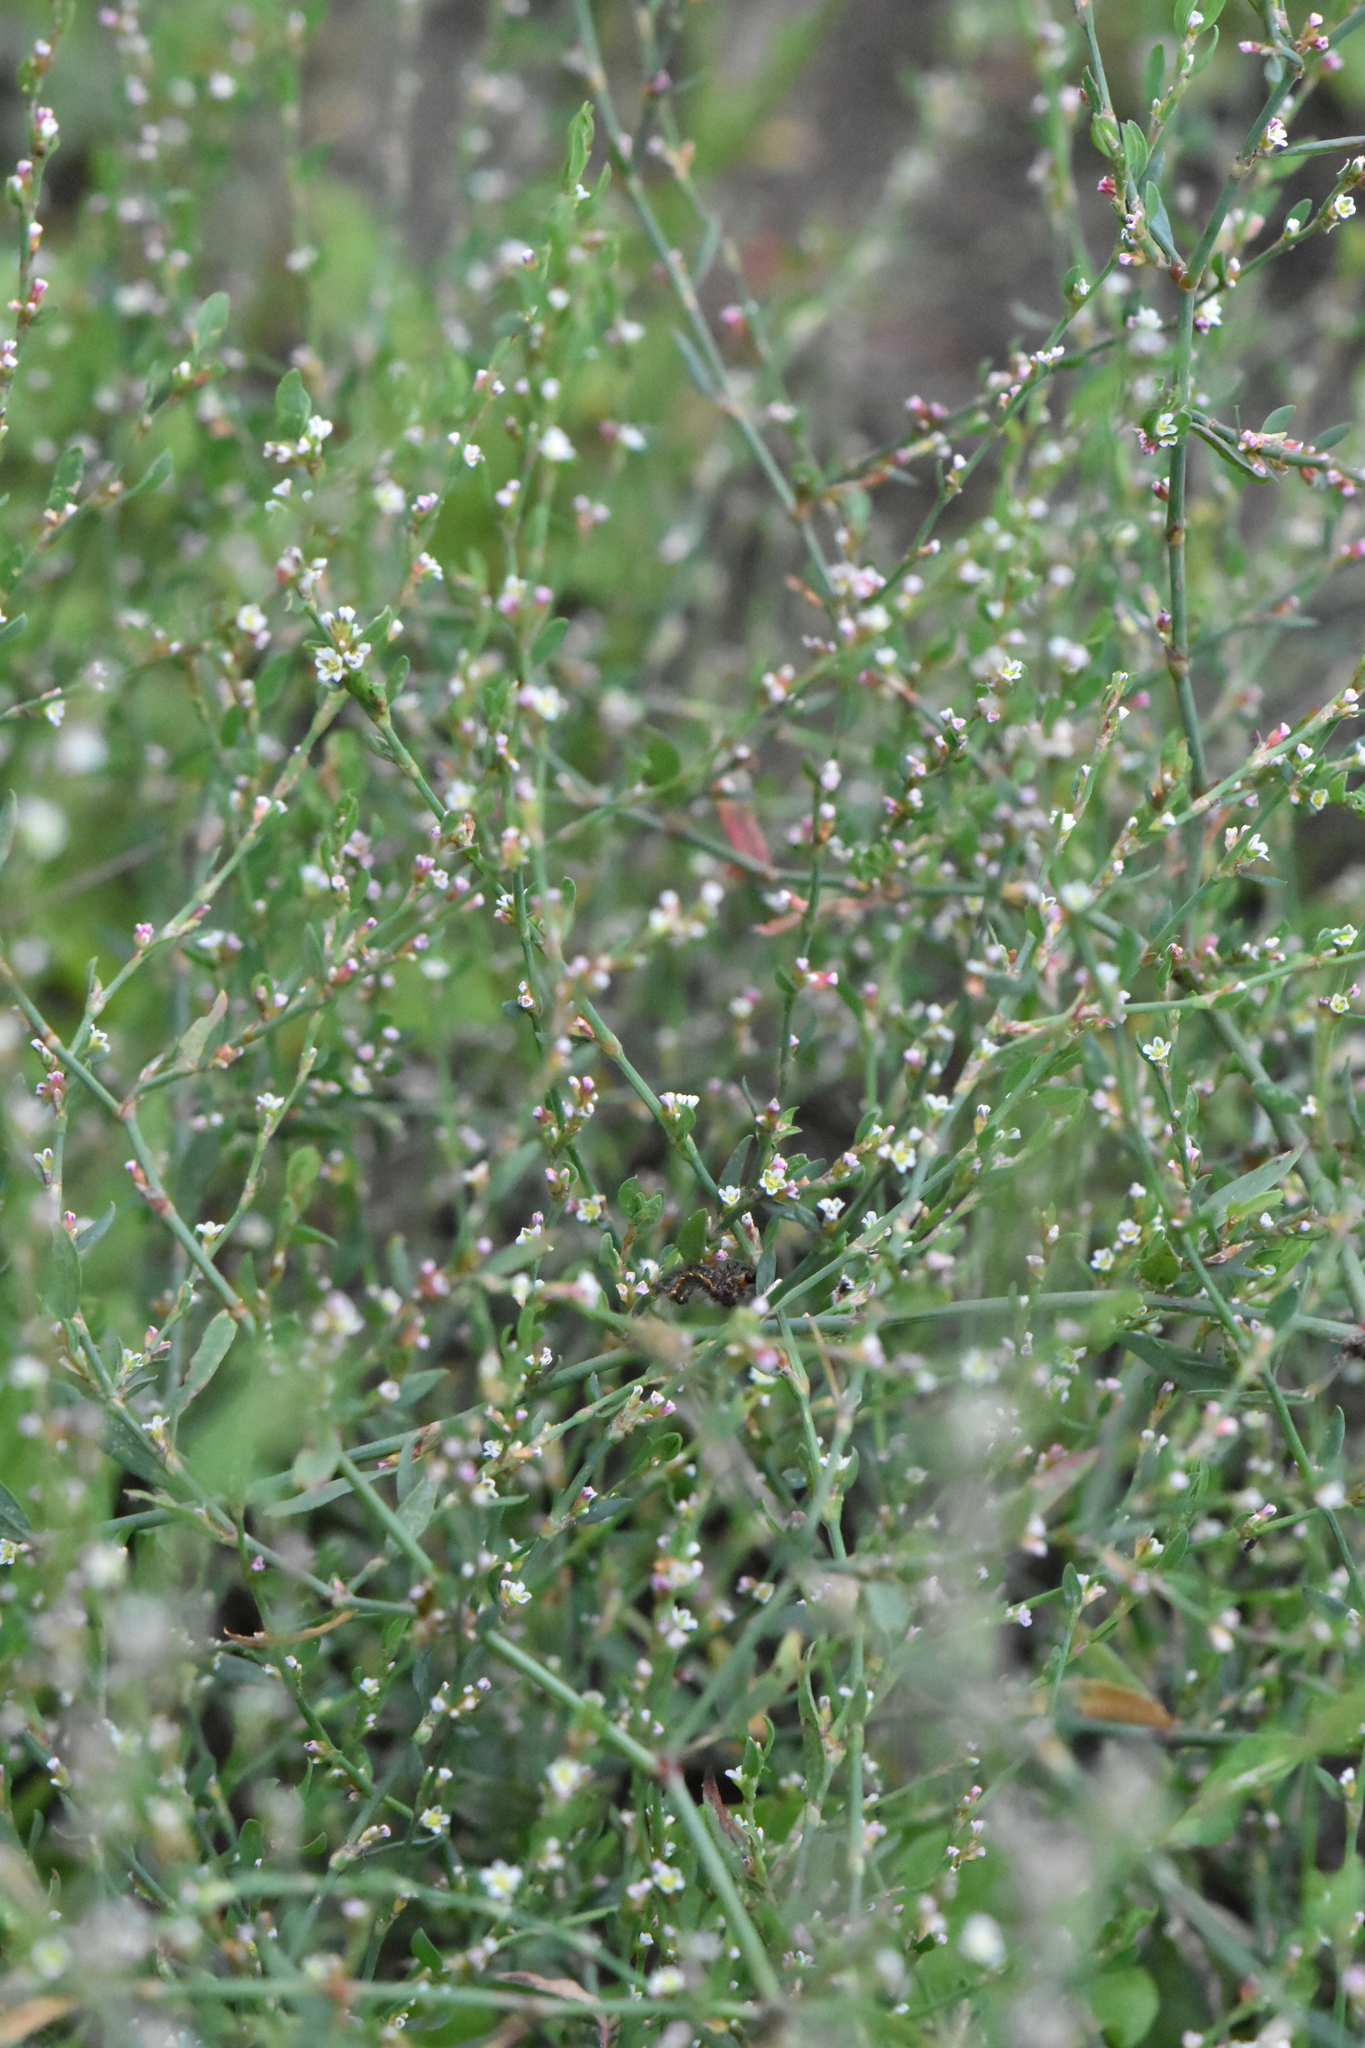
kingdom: Plantae
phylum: Tracheophyta
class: Magnoliopsida
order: Caryophyllales
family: Polygonaceae
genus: Polygonum
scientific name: Polygonum
